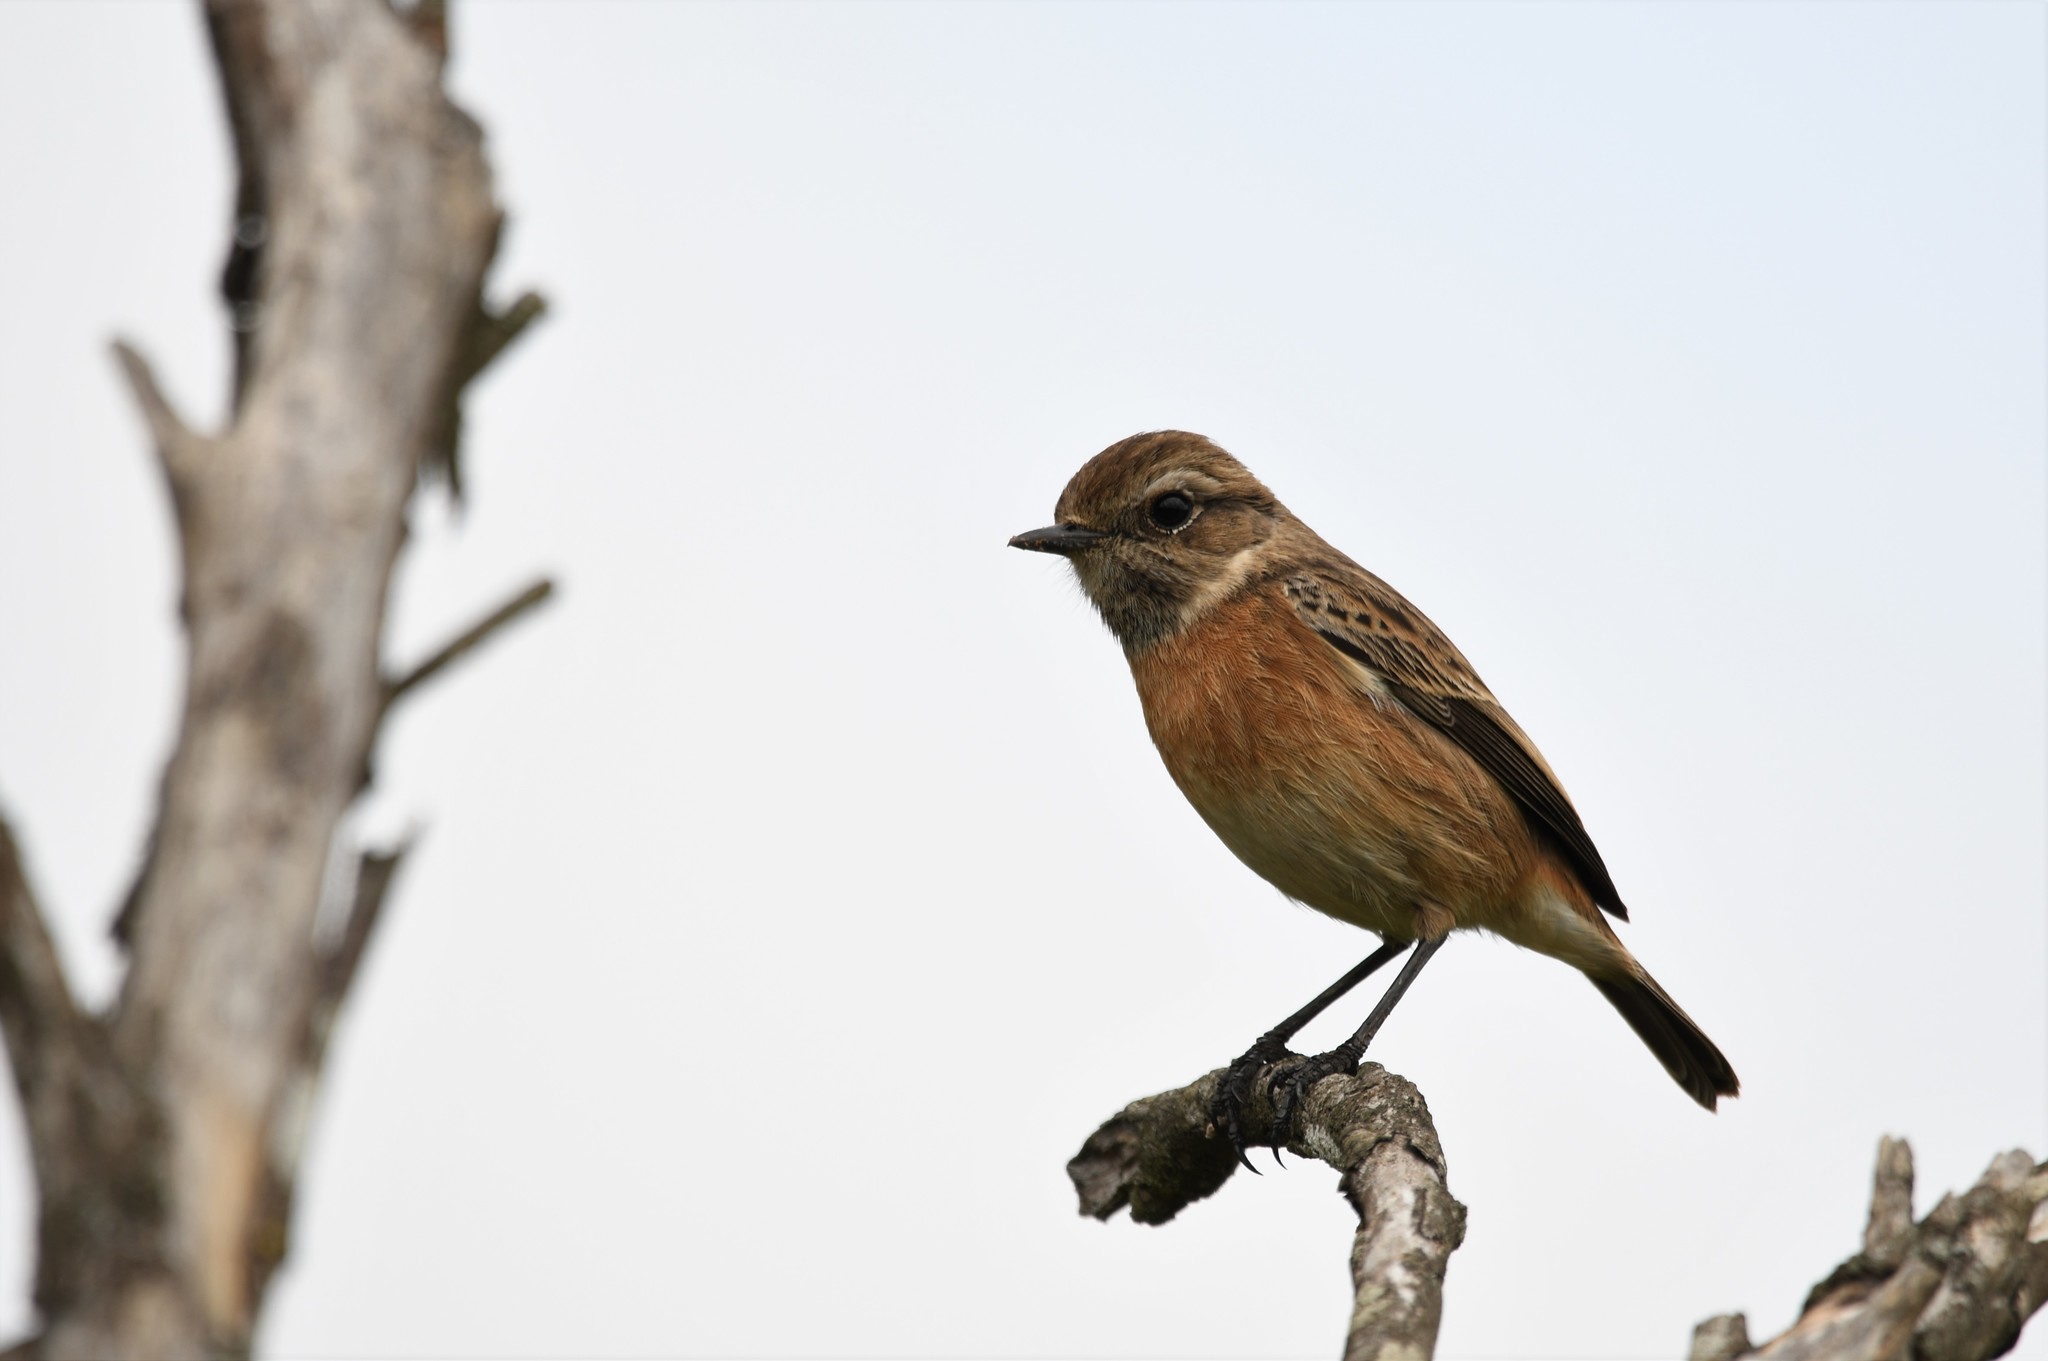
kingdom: Animalia
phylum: Chordata
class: Aves
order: Passeriformes
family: Muscicapidae
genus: Saxicola
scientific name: Saxicola rubicola
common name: European stonechat
